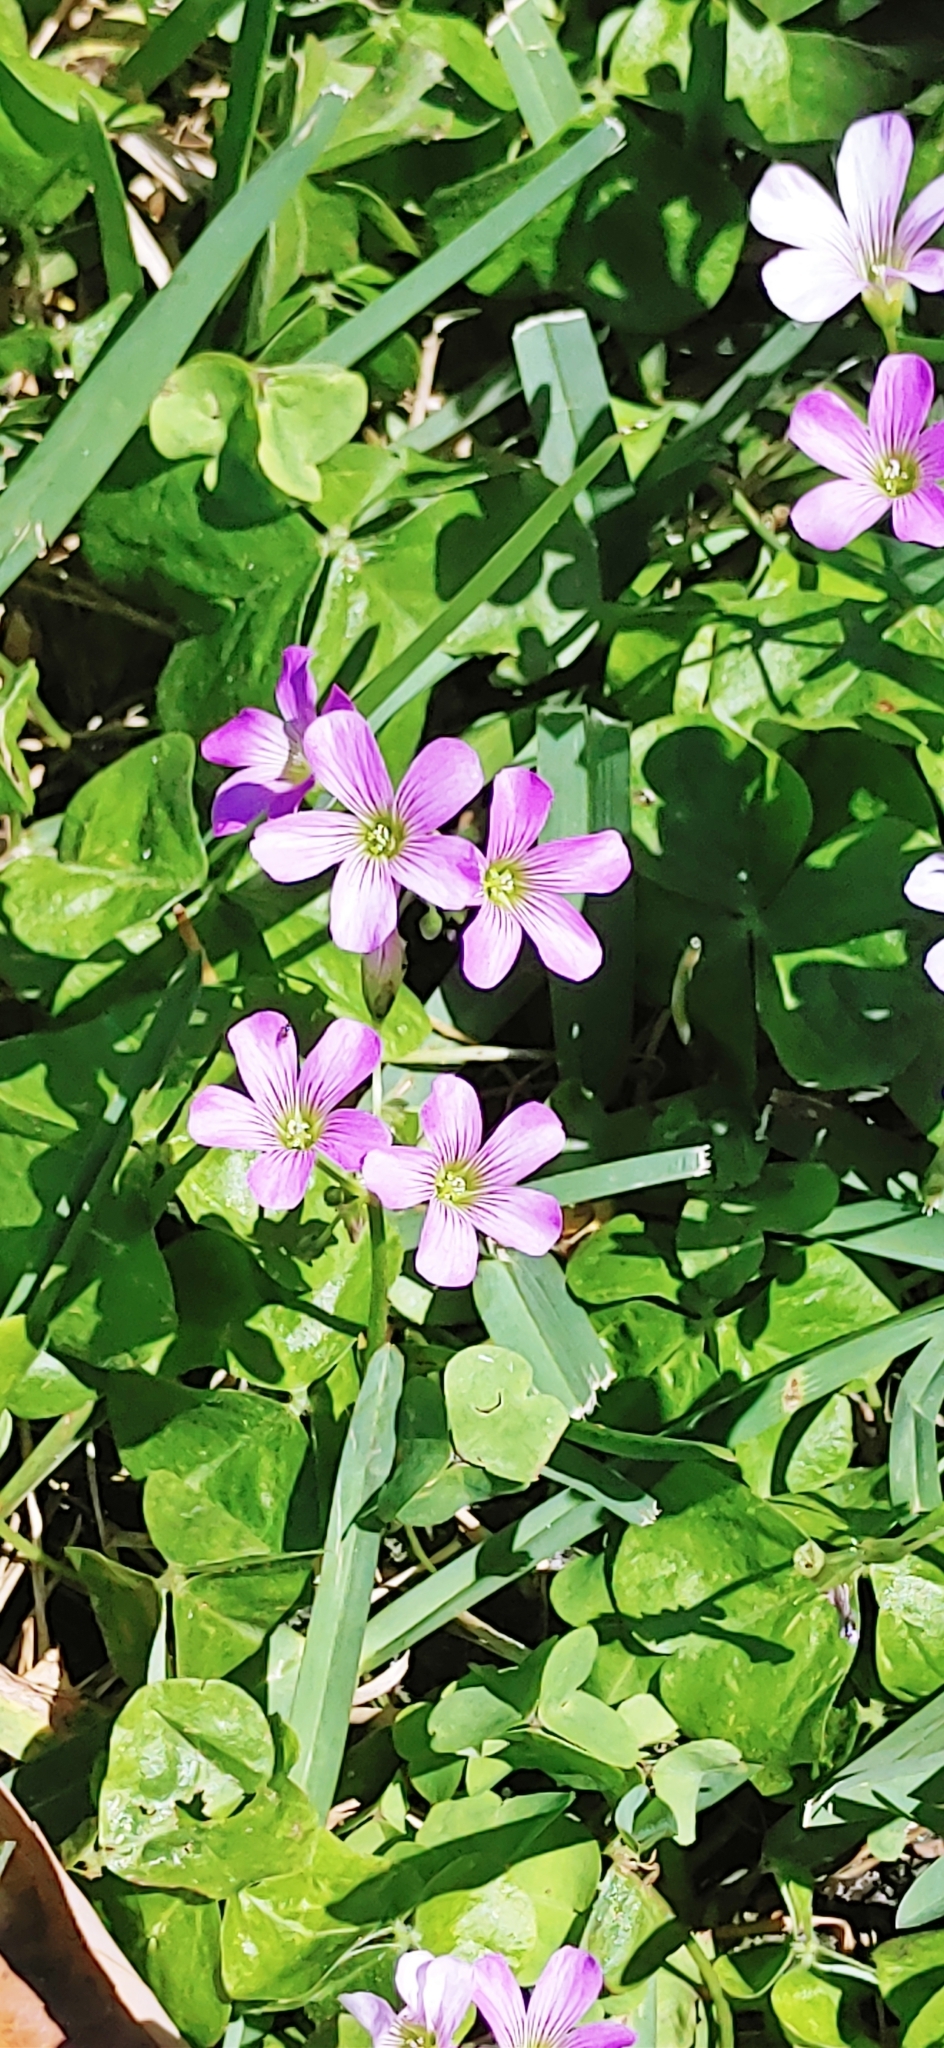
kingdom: Plantae
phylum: Tracheophyta
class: Magnoliopsida
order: Oxalidales
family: Oxalidaceae
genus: Oxalis
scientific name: Oxalis debilis
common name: Large-flowered pink-sorrel
